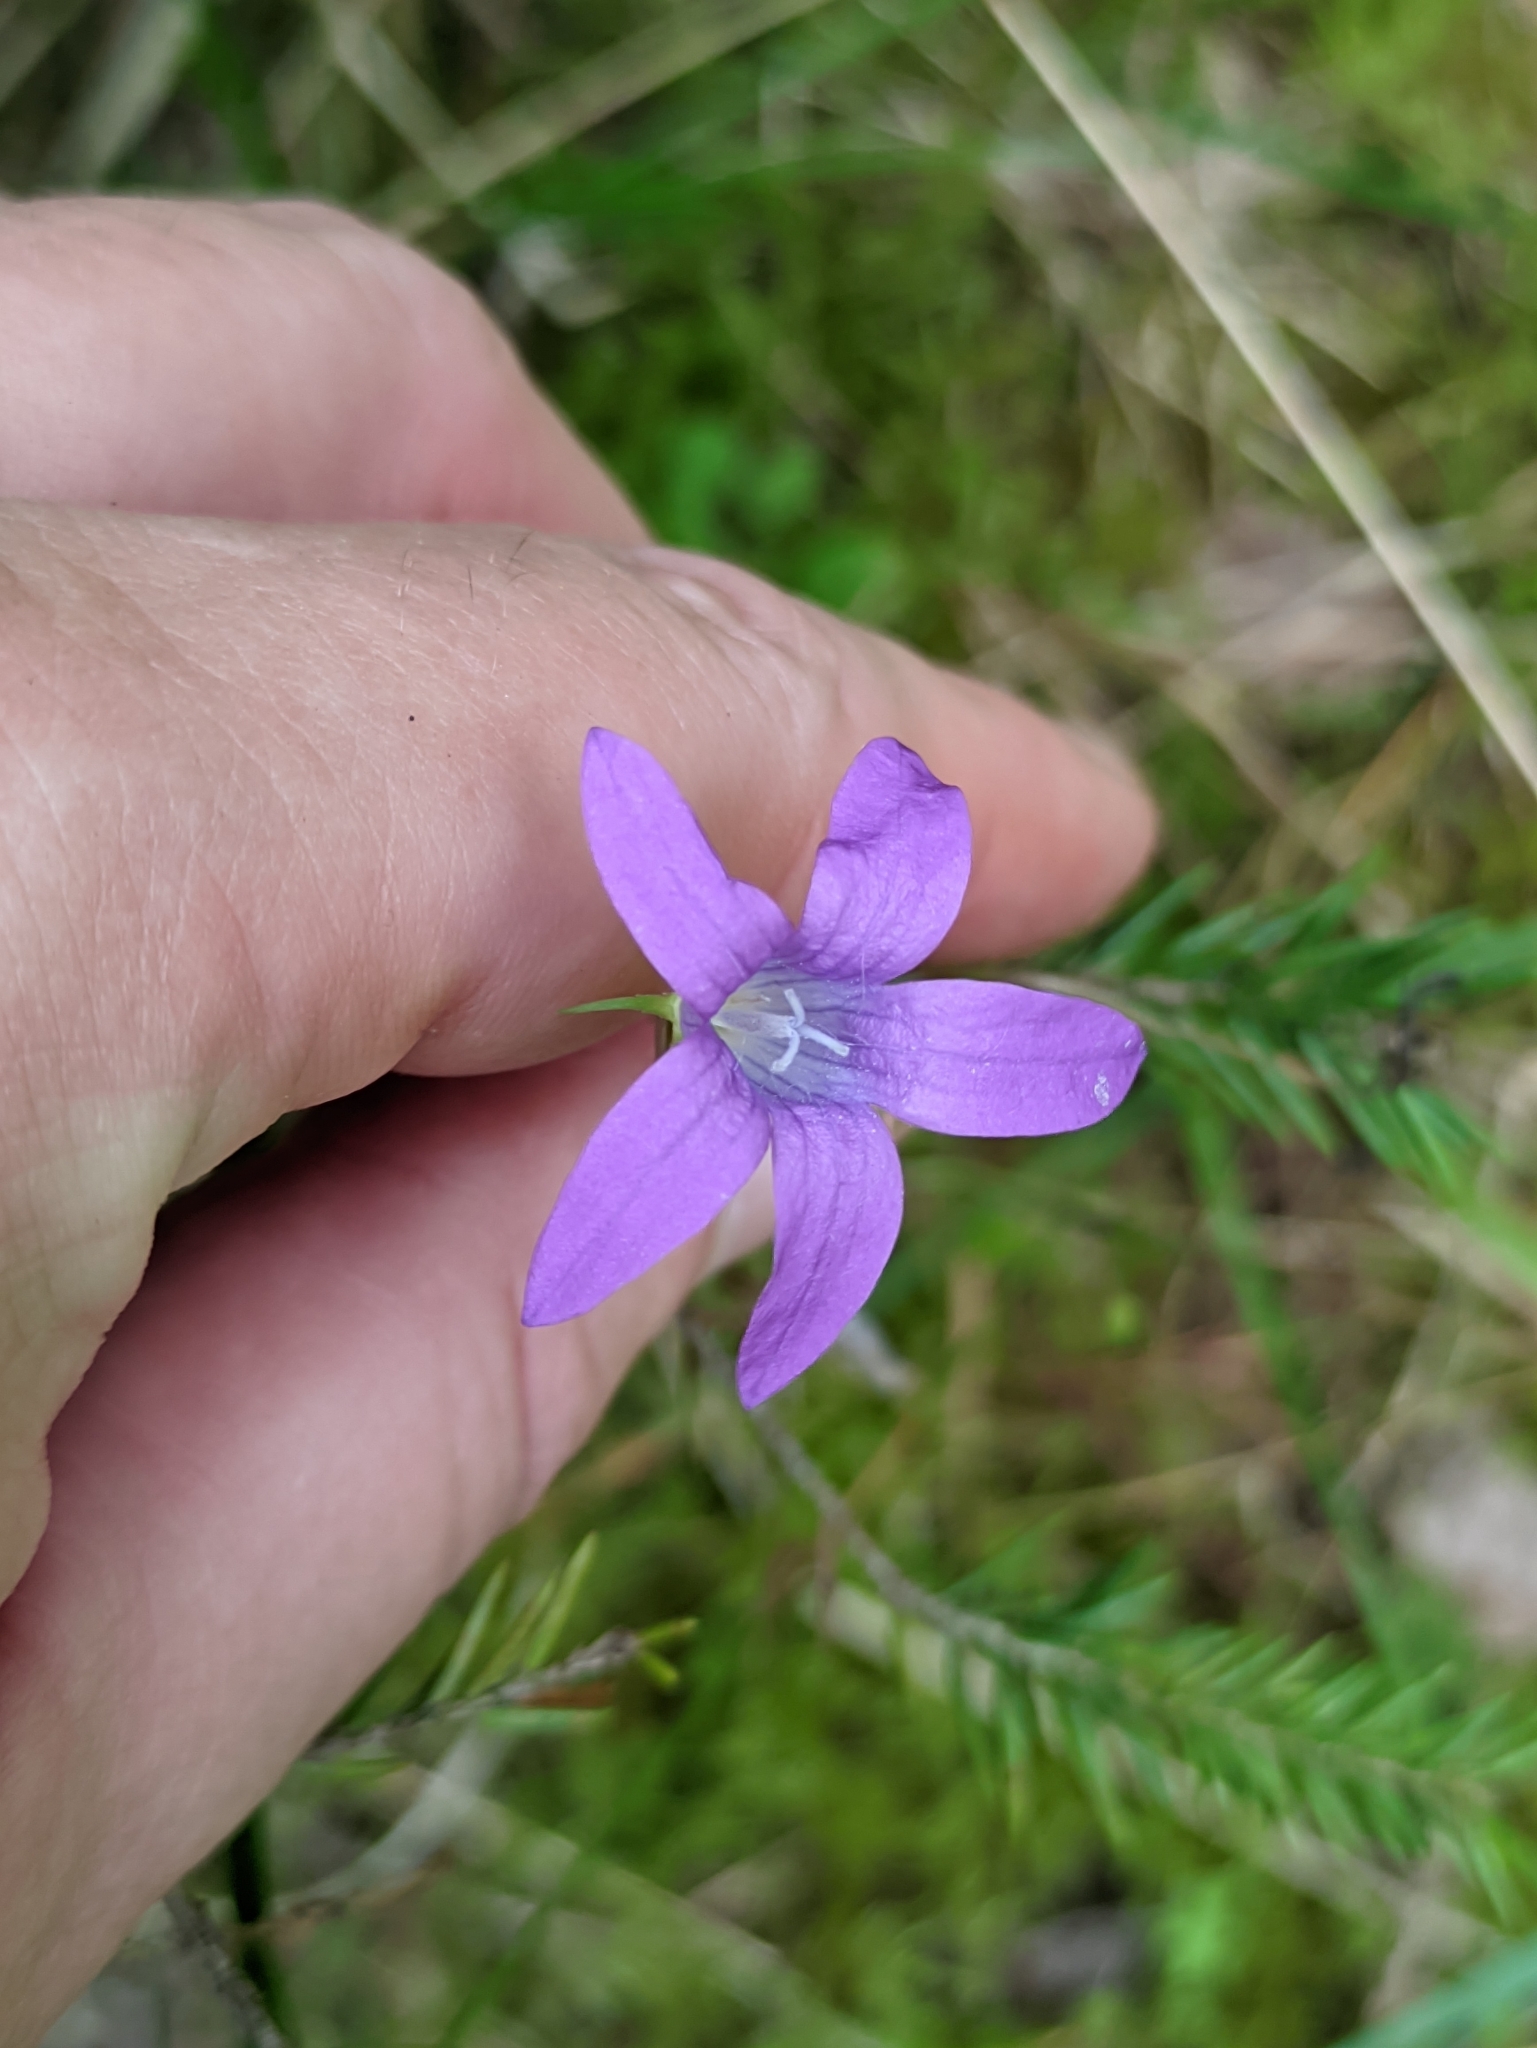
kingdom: Plantae
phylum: Tracheophyta
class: Magnoliopsida
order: Asterales
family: Campanulaceae
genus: Campanula
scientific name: Campanula patula
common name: Spreading bellflower
